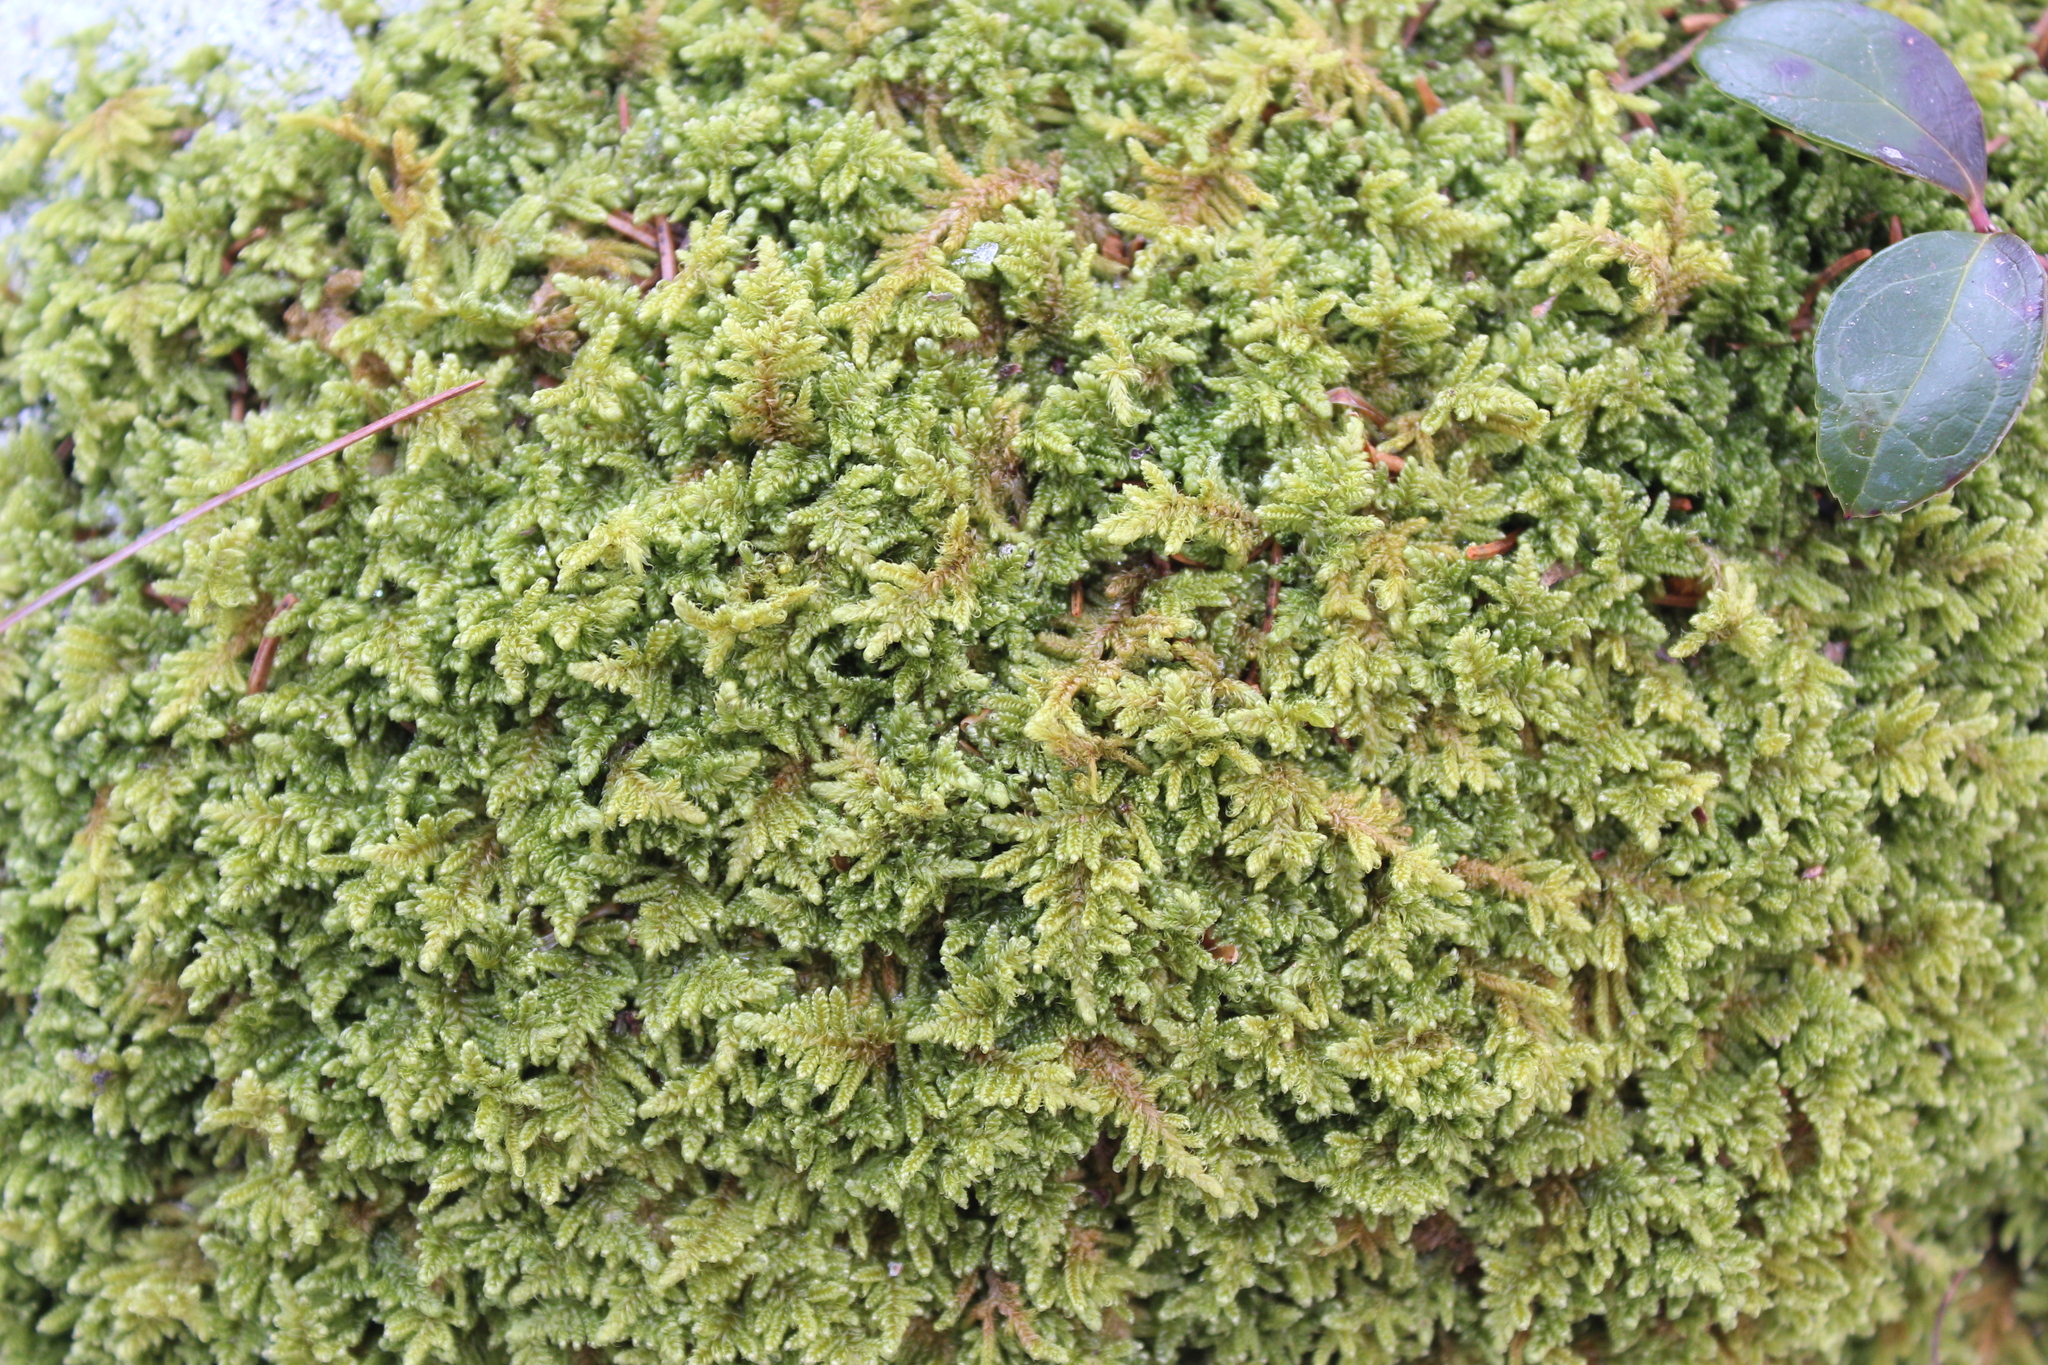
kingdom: Plantae
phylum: Bryophyta
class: Bryopsida
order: Hypnales
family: Callicladiaceae
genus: Callicladium
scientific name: Callicladium imponens
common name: Brocade moss
